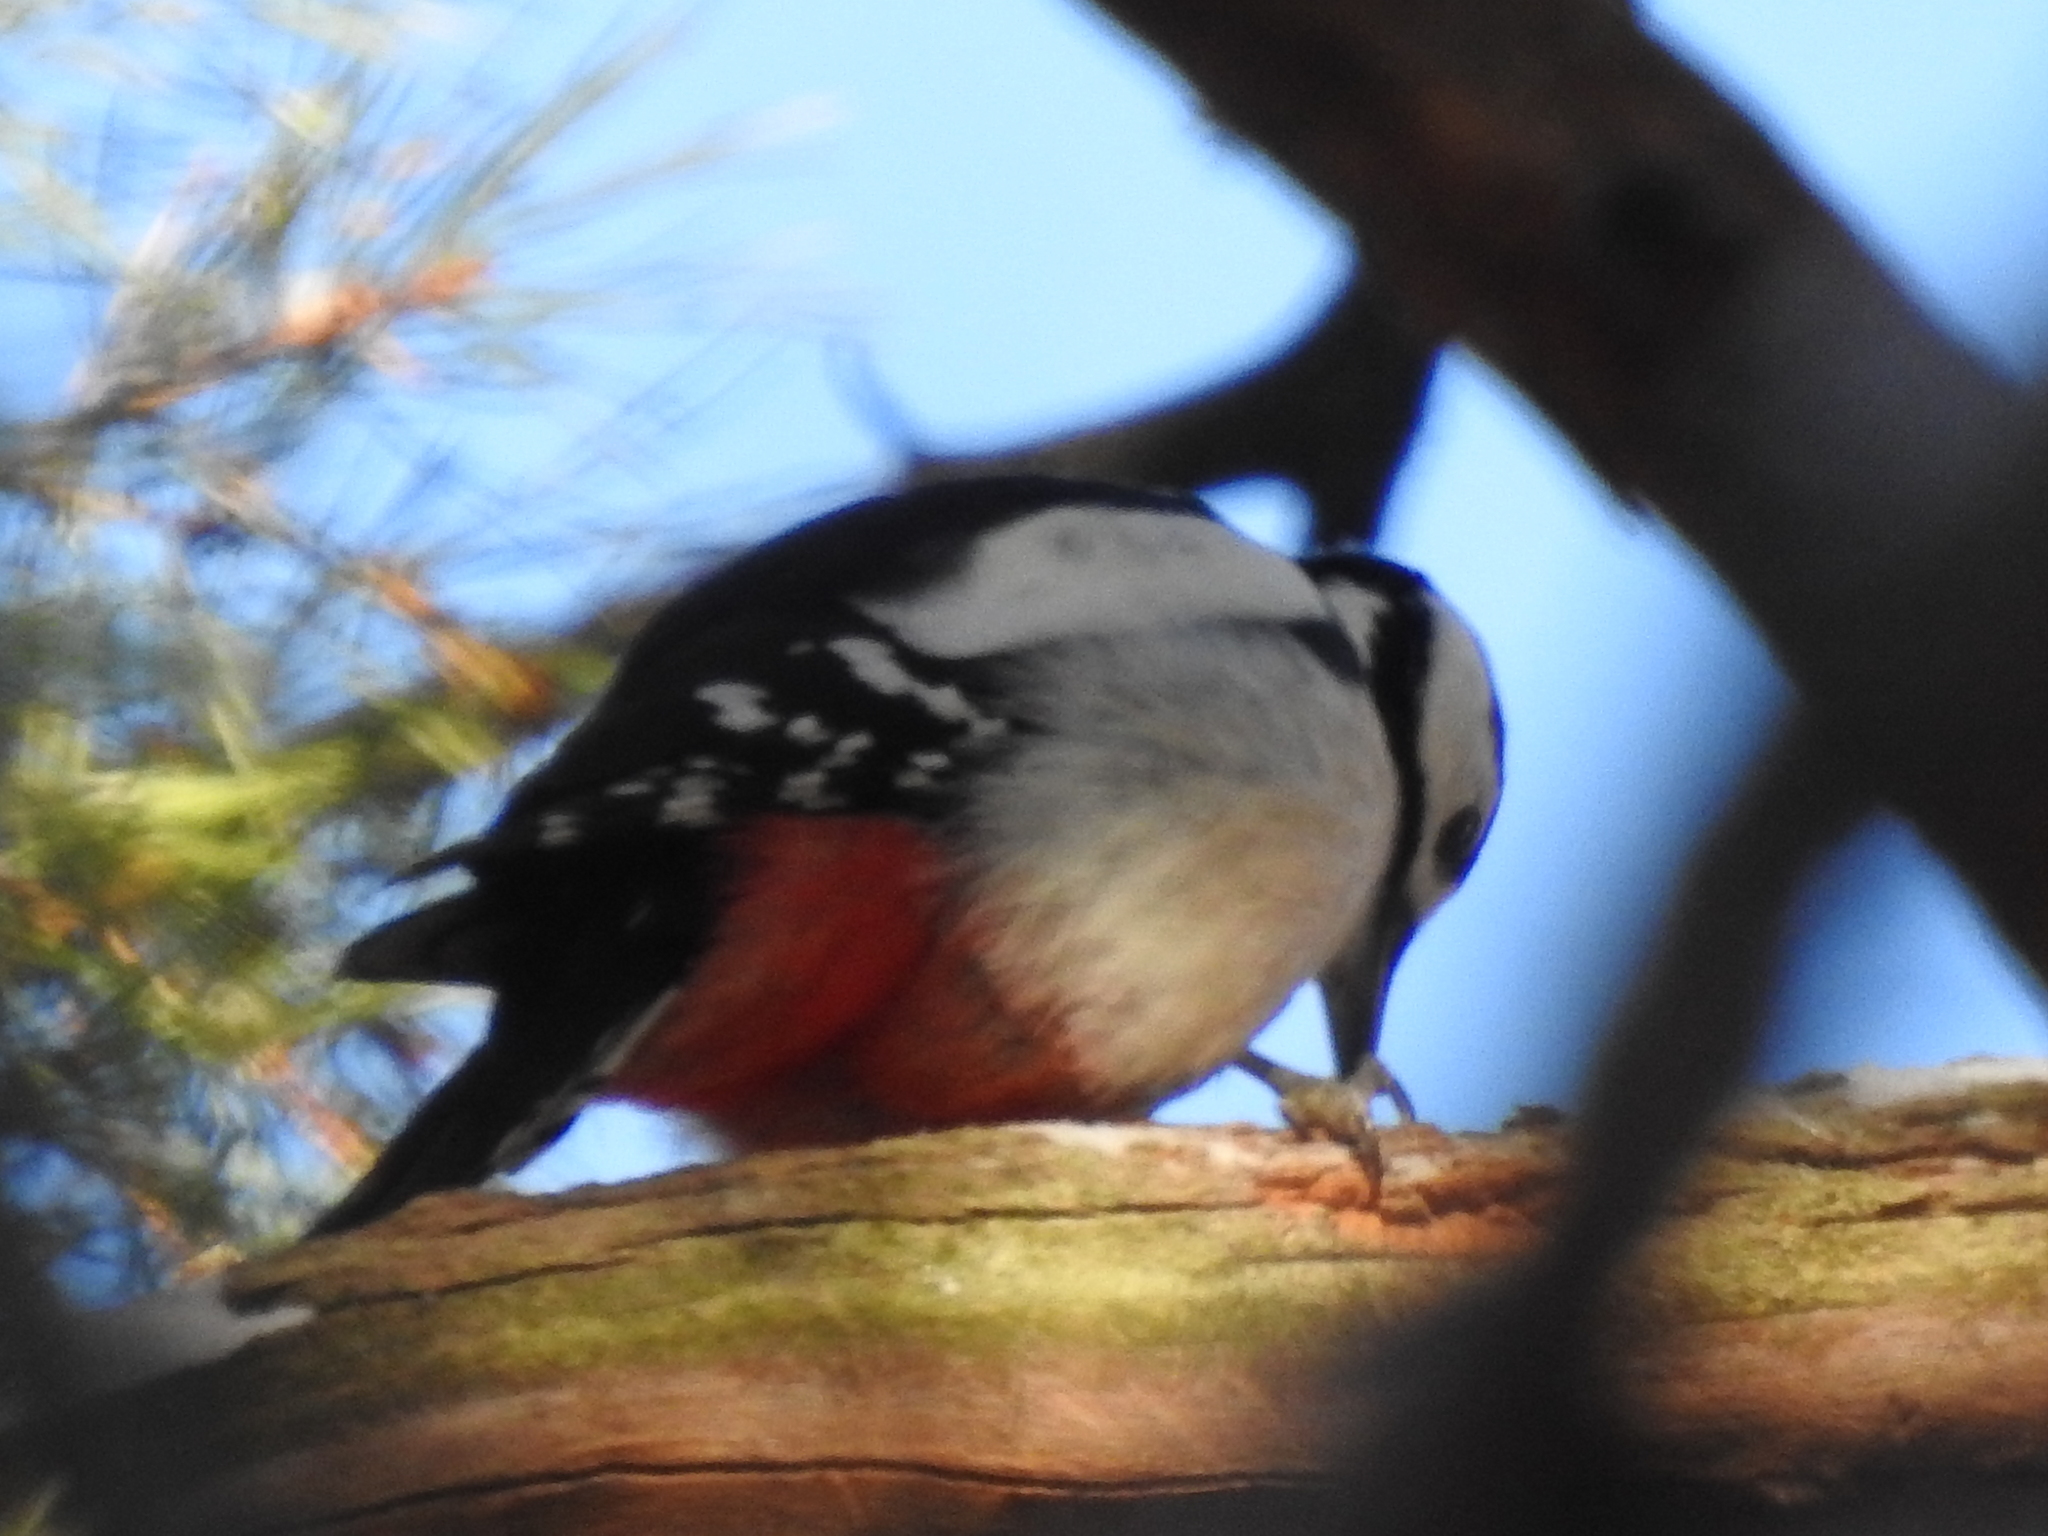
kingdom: Animalia
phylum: Chordata
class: Aves
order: Piciformes
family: Picidae
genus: Dendrocopos
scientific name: Dendrocopos major
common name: Great spotted woodpecker
